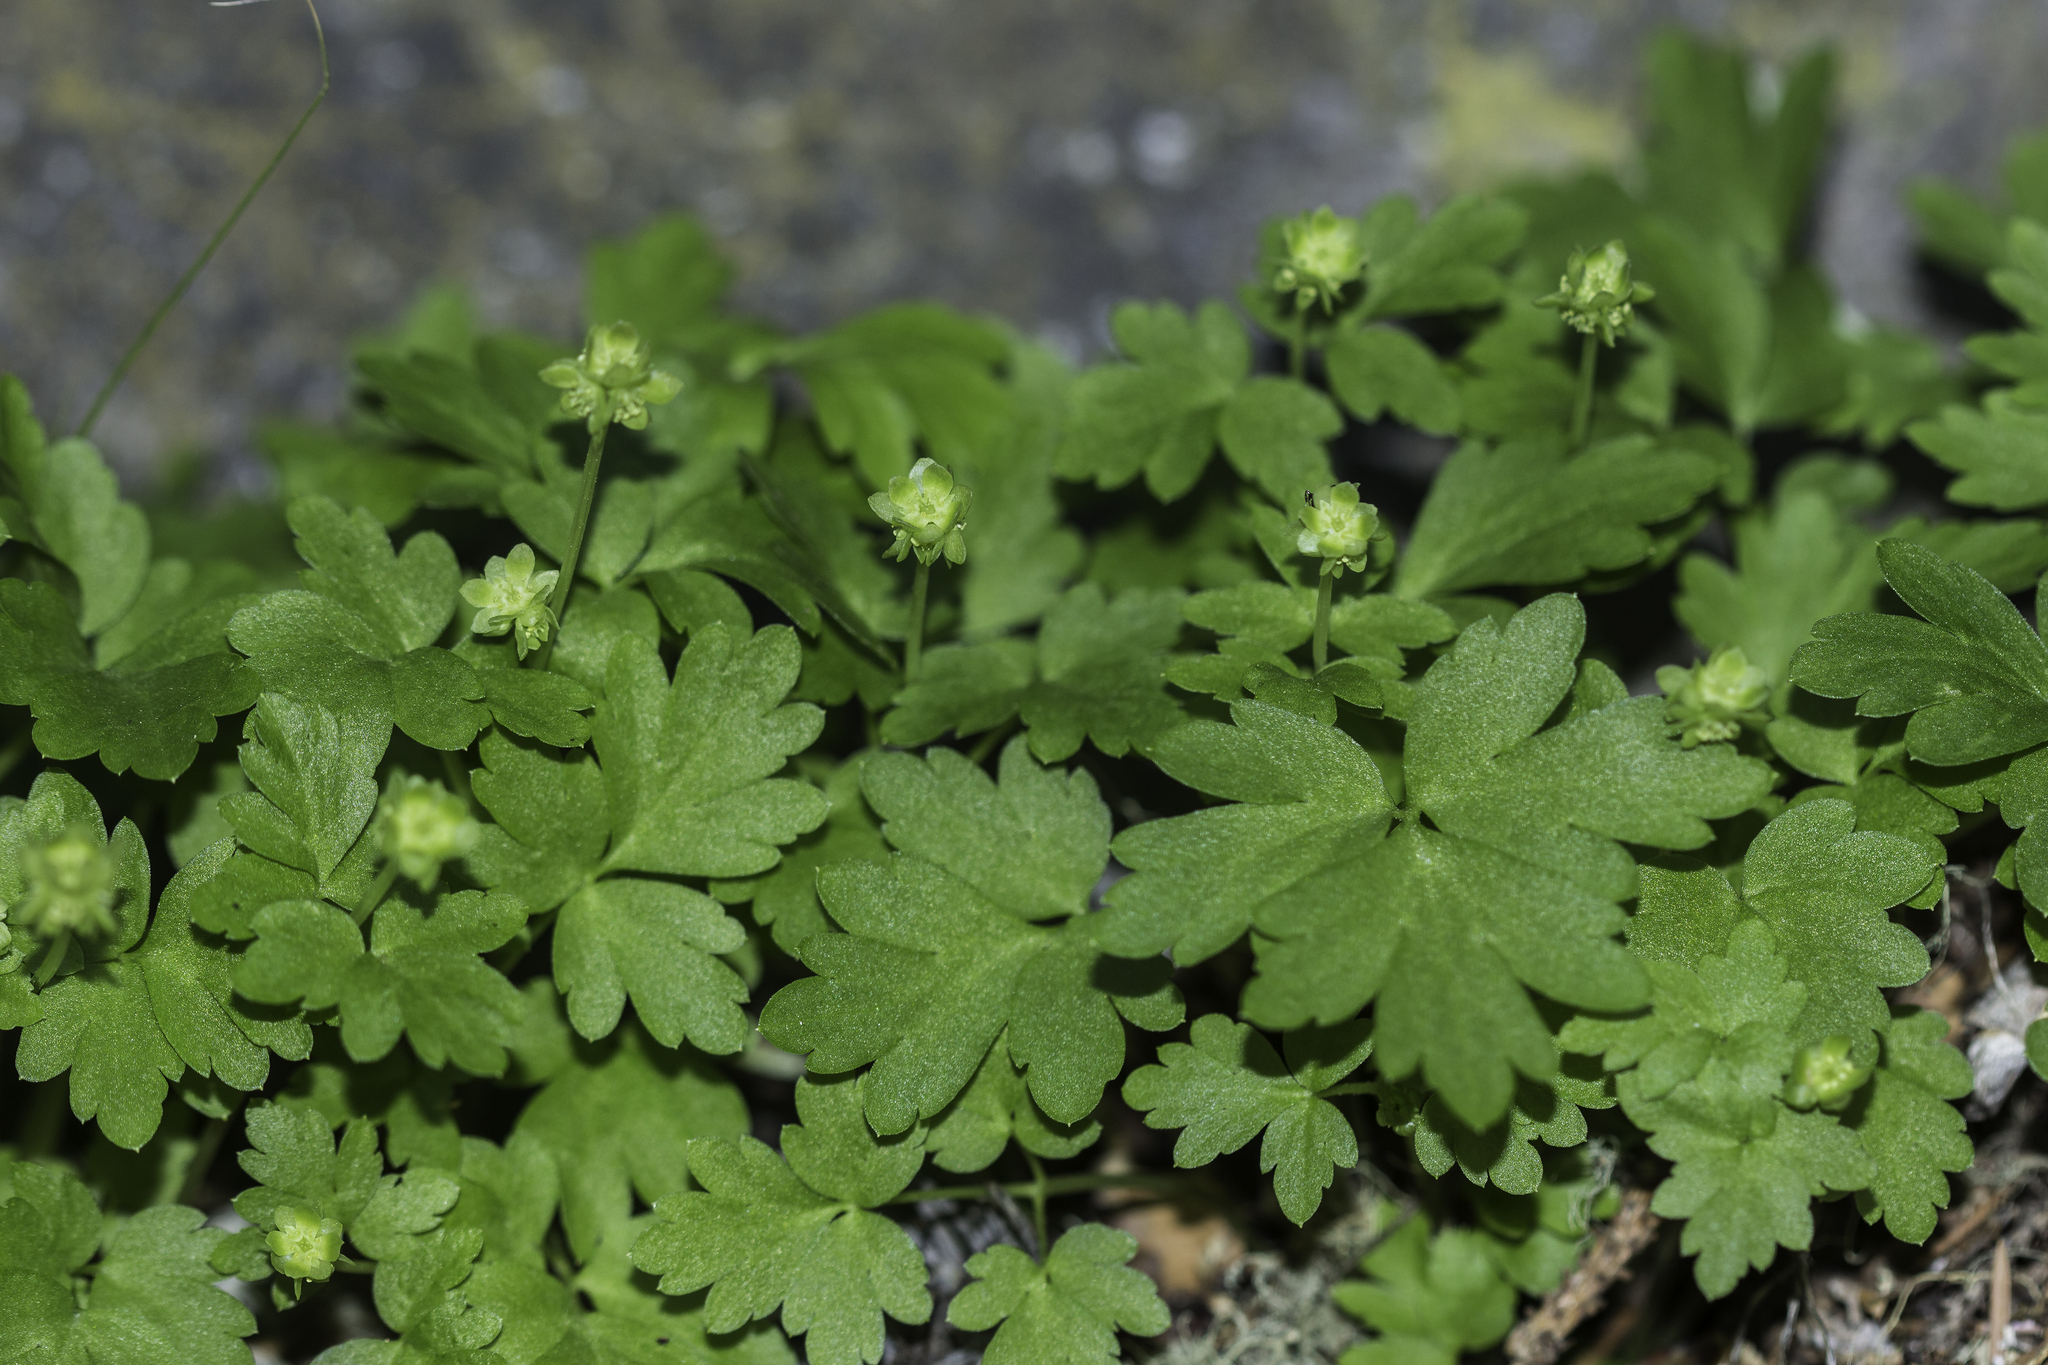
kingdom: Plantae
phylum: Tracheophyta
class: Magnoliopsida
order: Dipsacales
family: Viburnaceae
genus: Adoxa
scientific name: Adoxa moschatellina
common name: Moschatel
